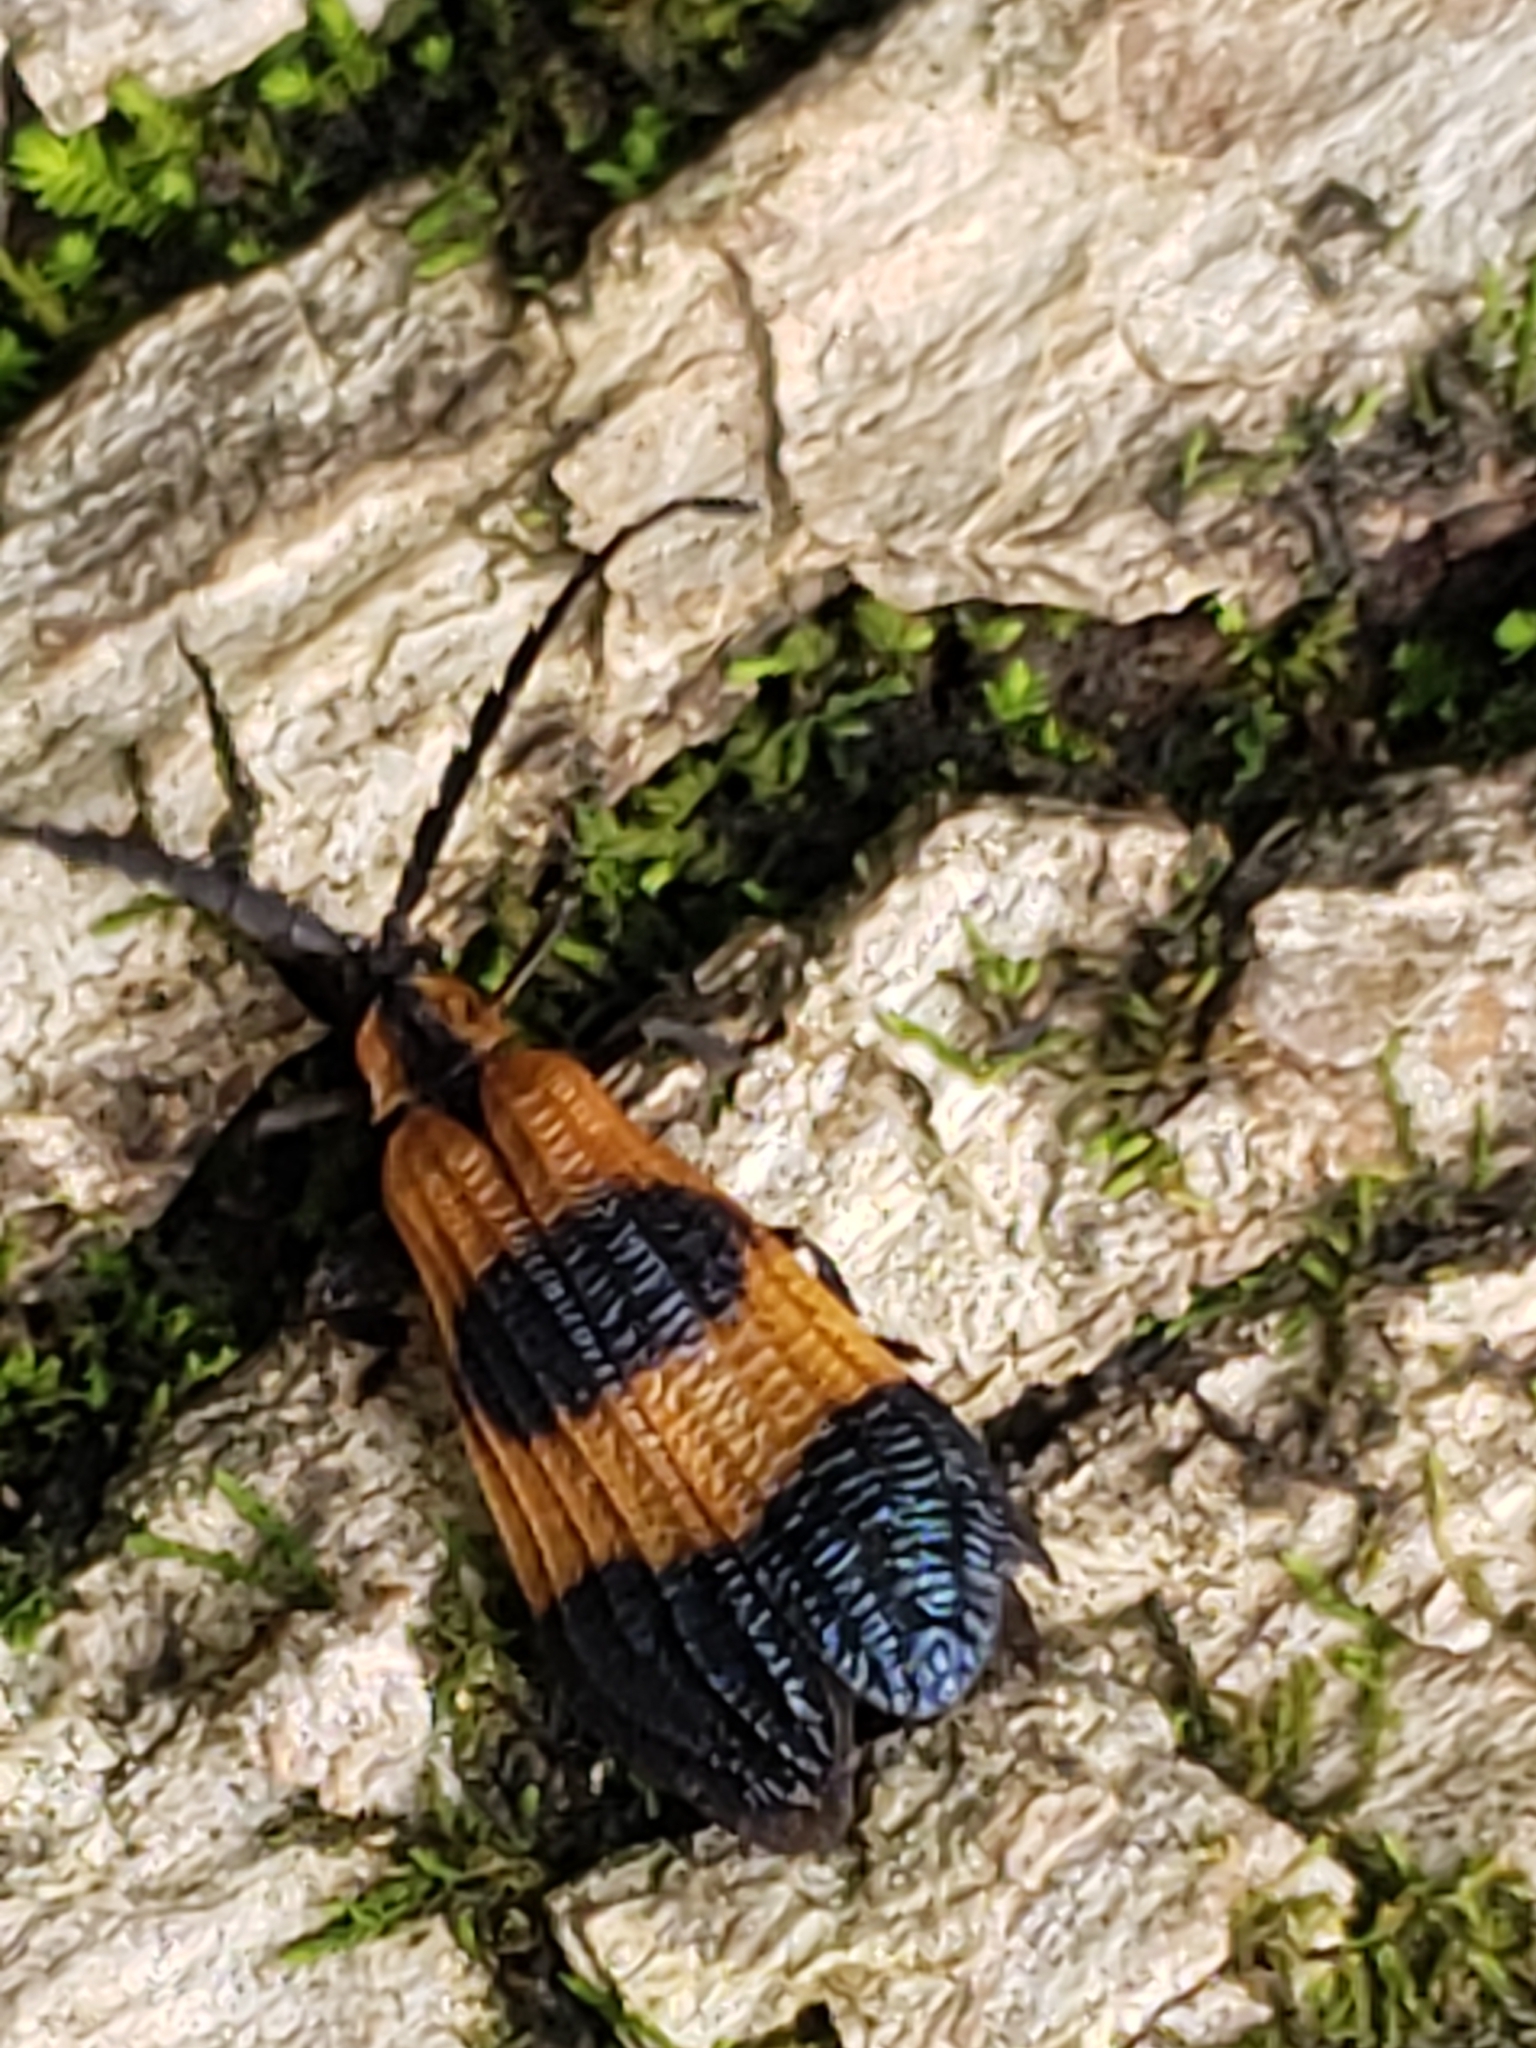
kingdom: Animalia
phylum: Arthropoda
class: Insecta
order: Coleoptera
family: Lycidae
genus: Calopteron
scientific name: Calopteron terminale
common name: End band net-winged beetle
